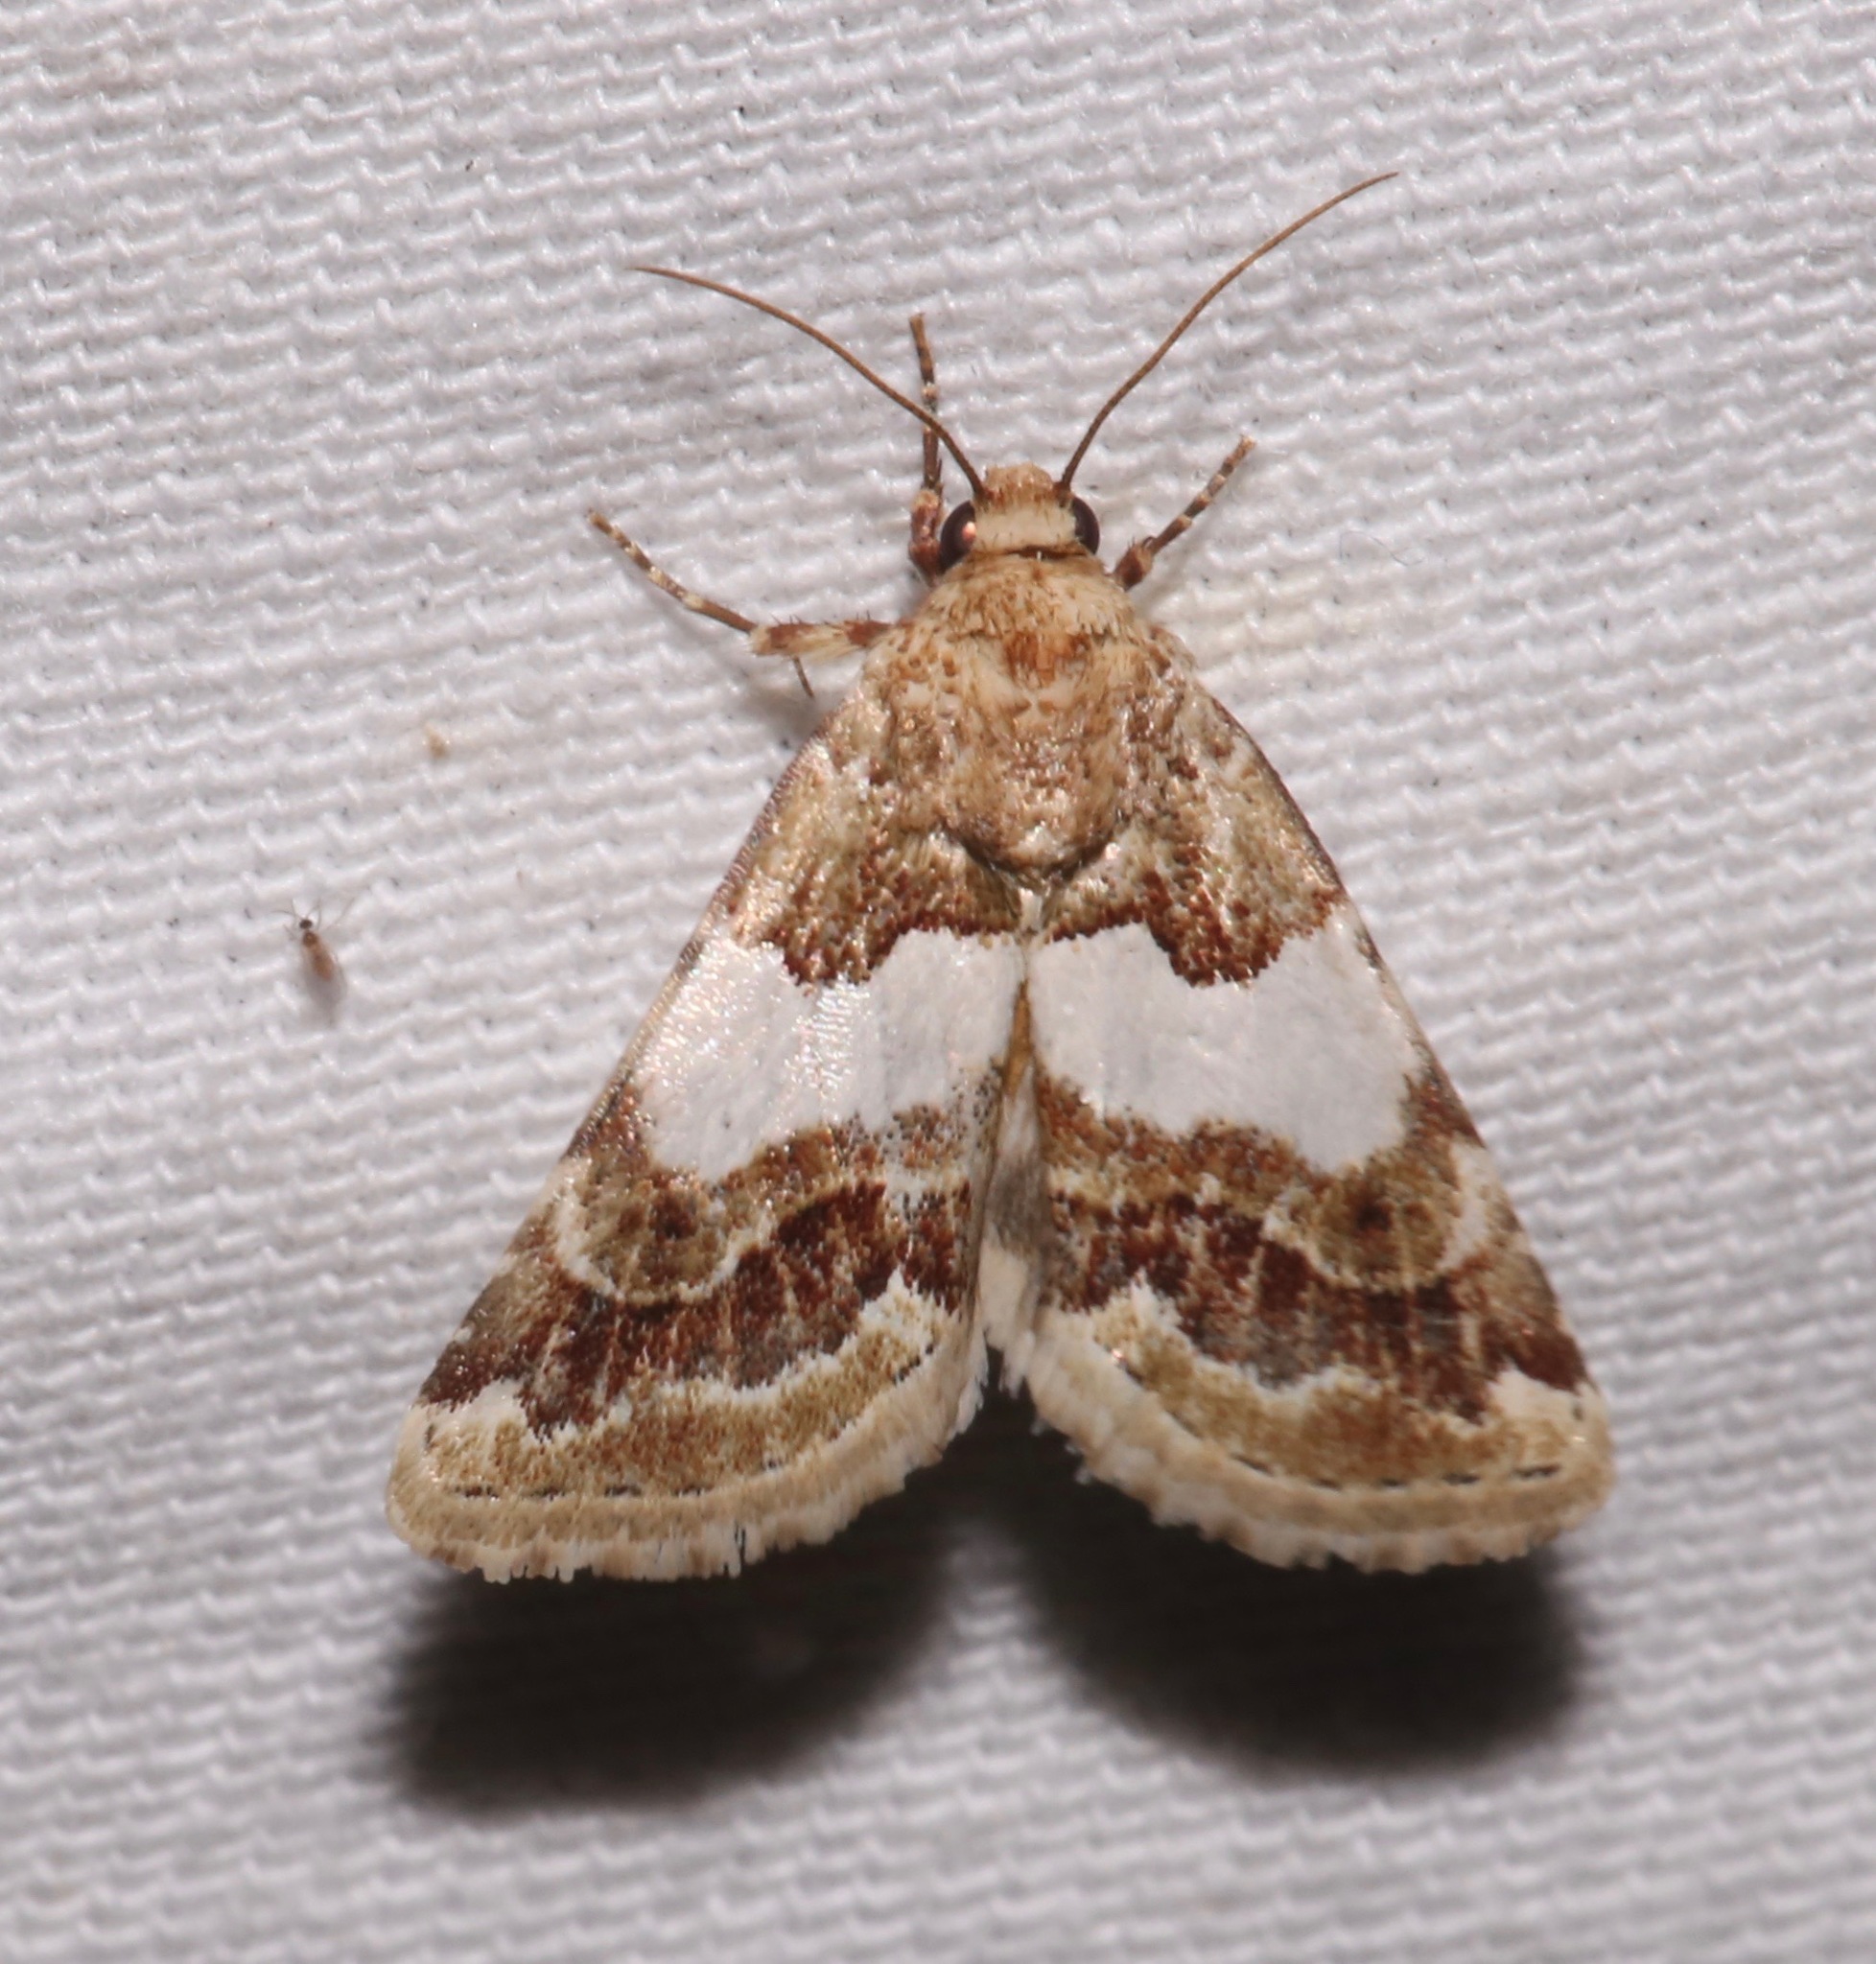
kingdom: Animalia
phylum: Arthropoda
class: Insecta
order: Lepidoptera
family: Noctuidae
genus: Schinia
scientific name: Schinia argentifascia
